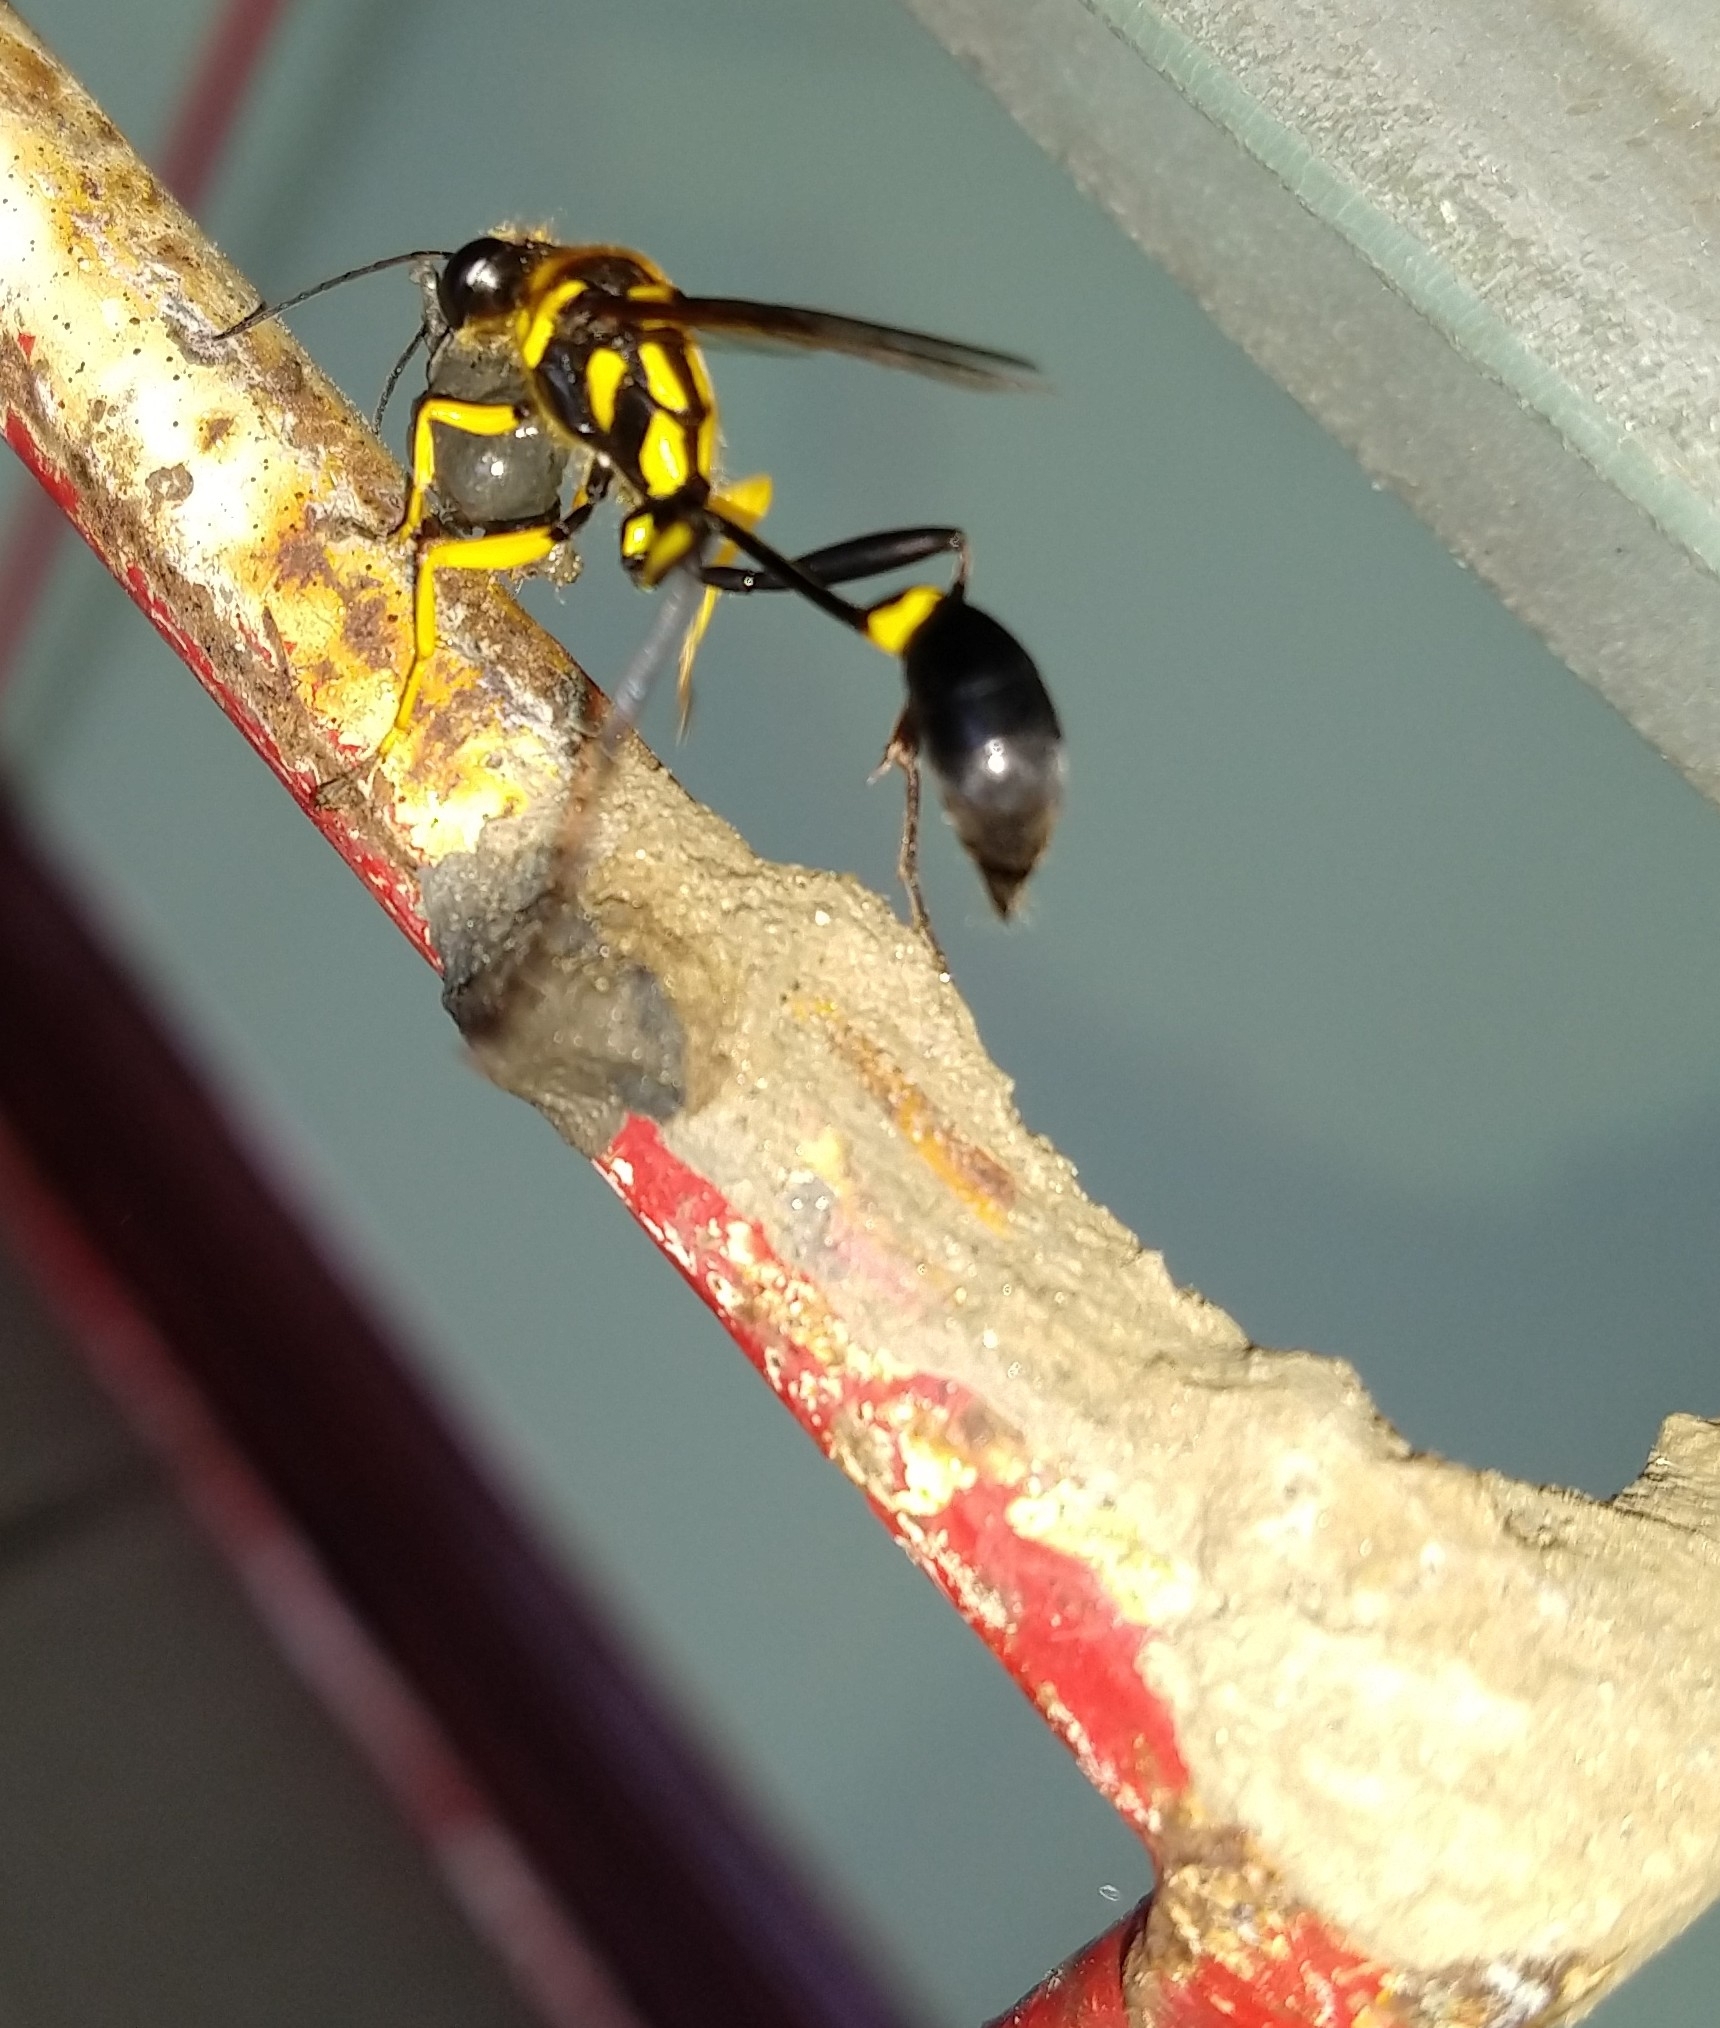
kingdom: Animalia
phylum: Arthropoda
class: Insecta
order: Hymenoptera
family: Sphecidae
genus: Sceliphron
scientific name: Sceliphron fistularium
